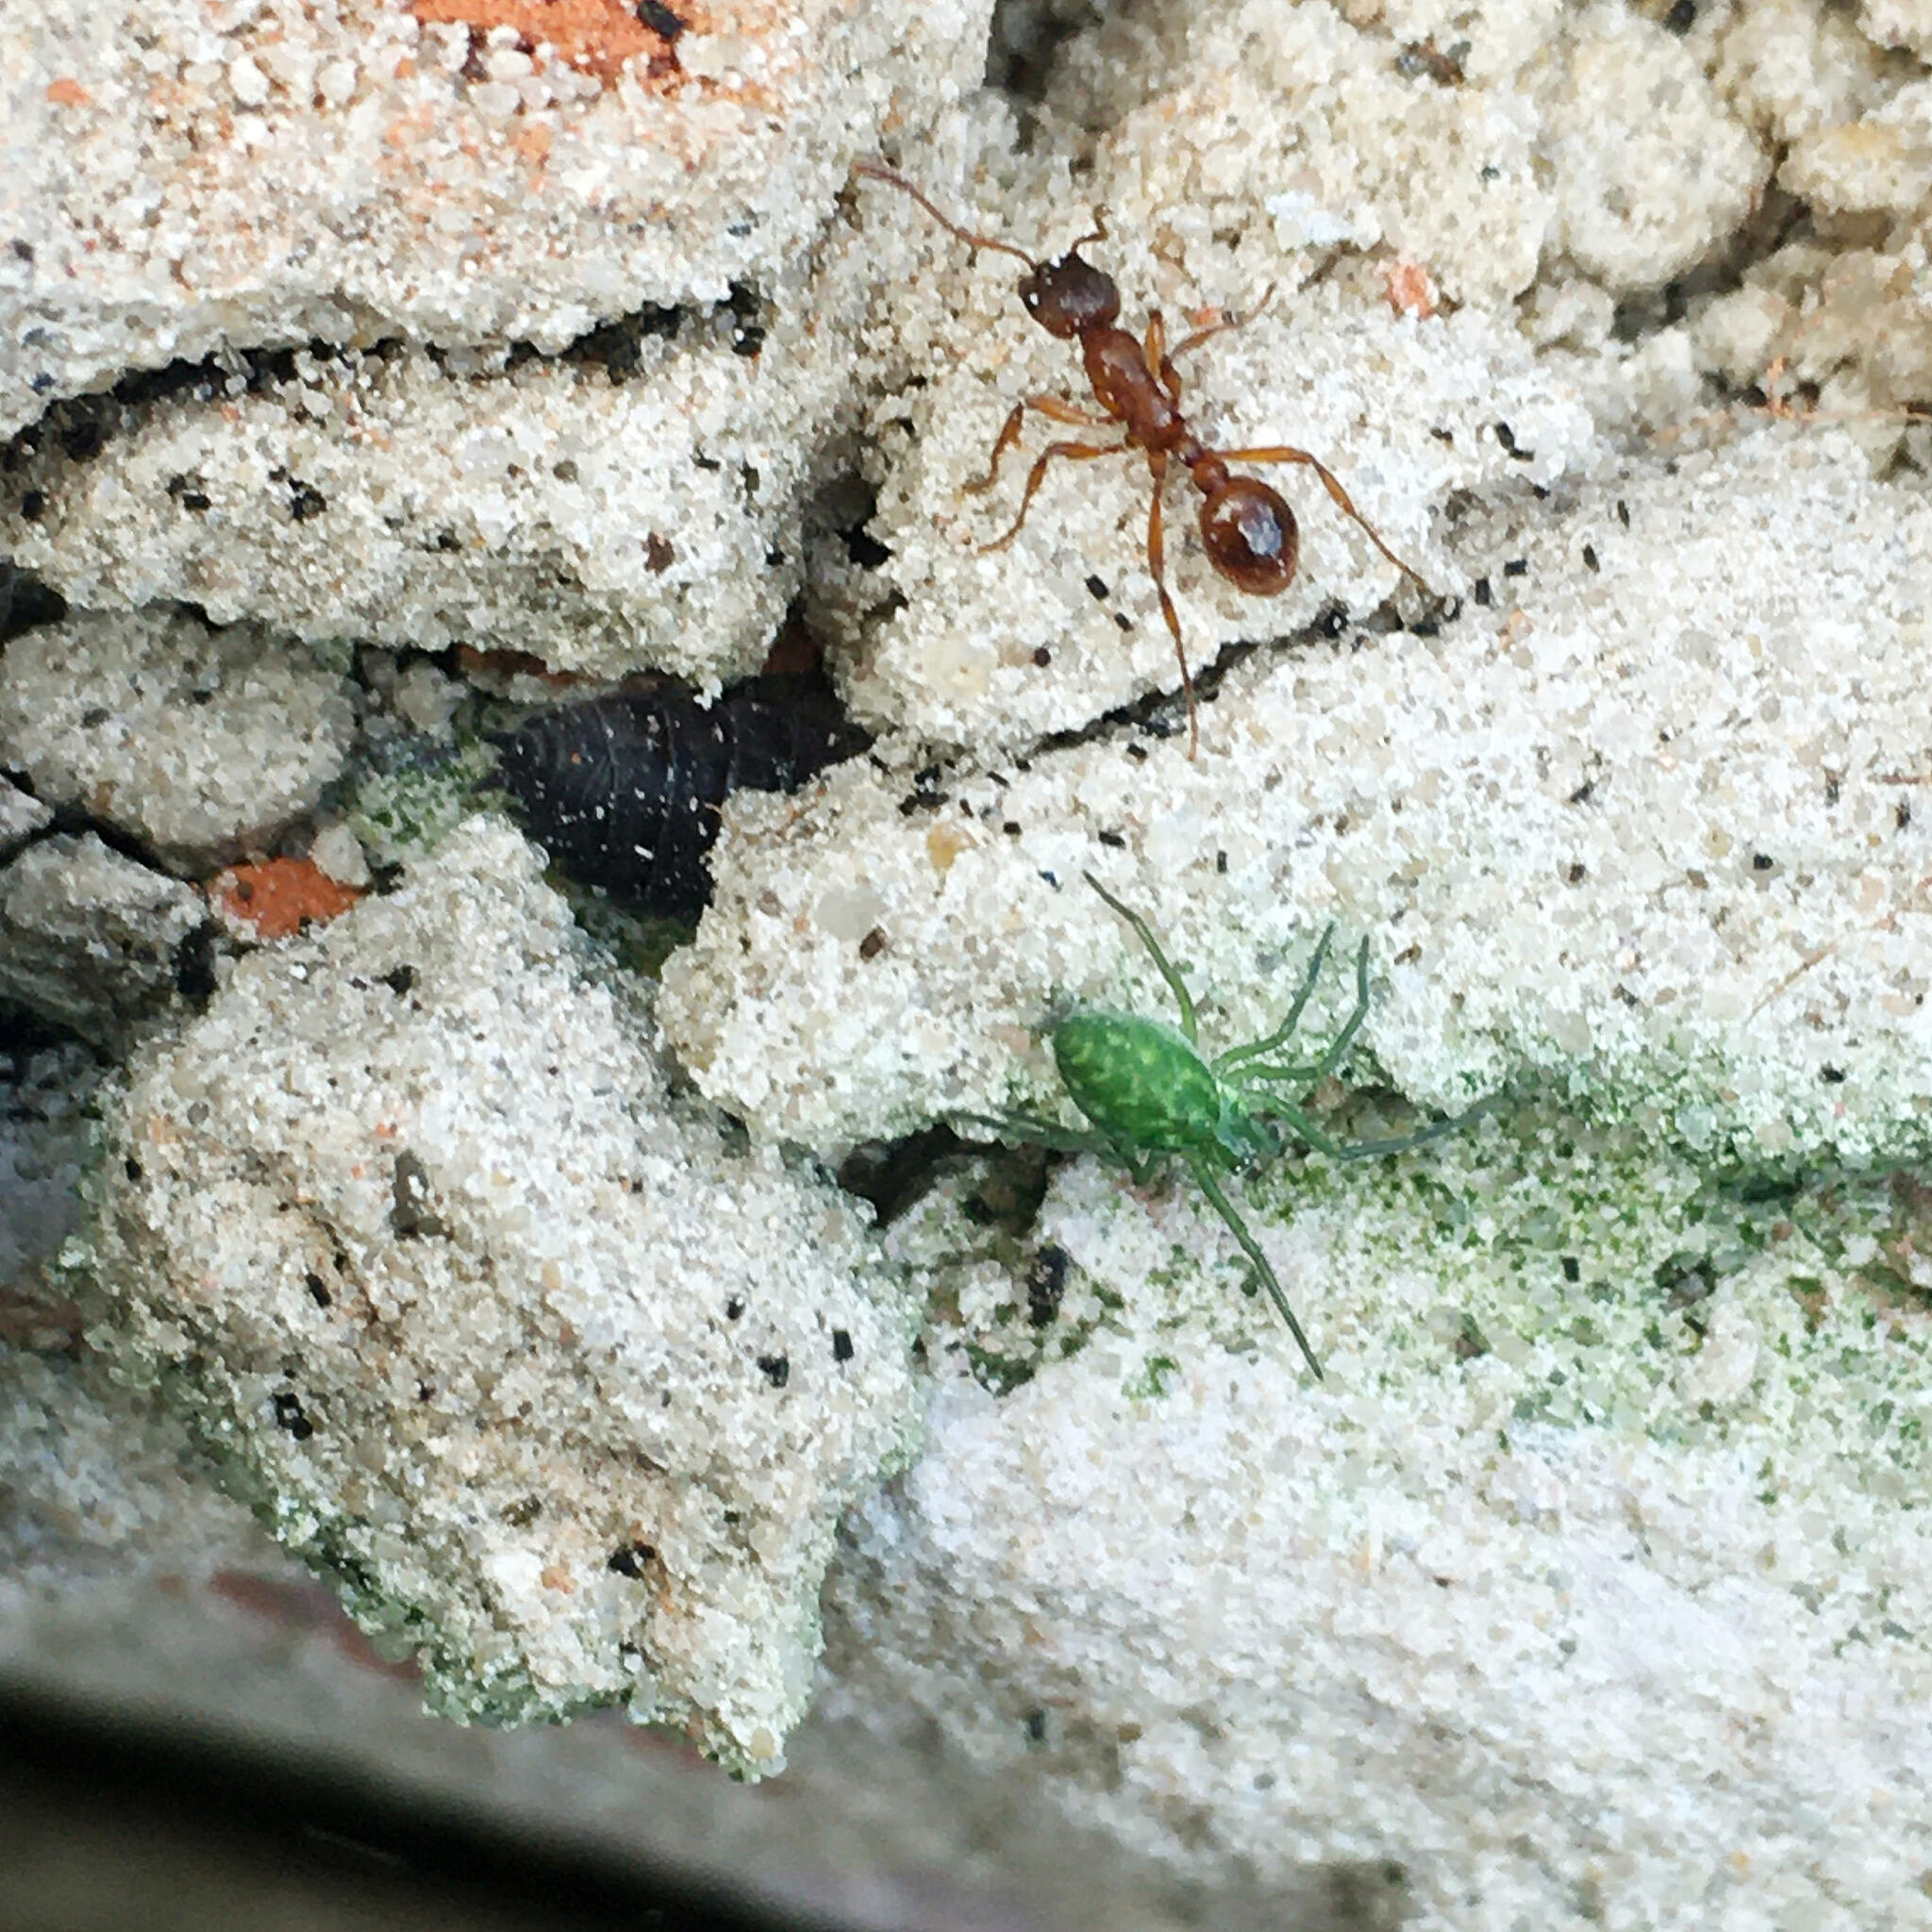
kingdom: Animalia
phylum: Arthropoda
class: Arachnida
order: Araneae
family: Dictynidae
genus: Nigma
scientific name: Nigma walckenaeri
